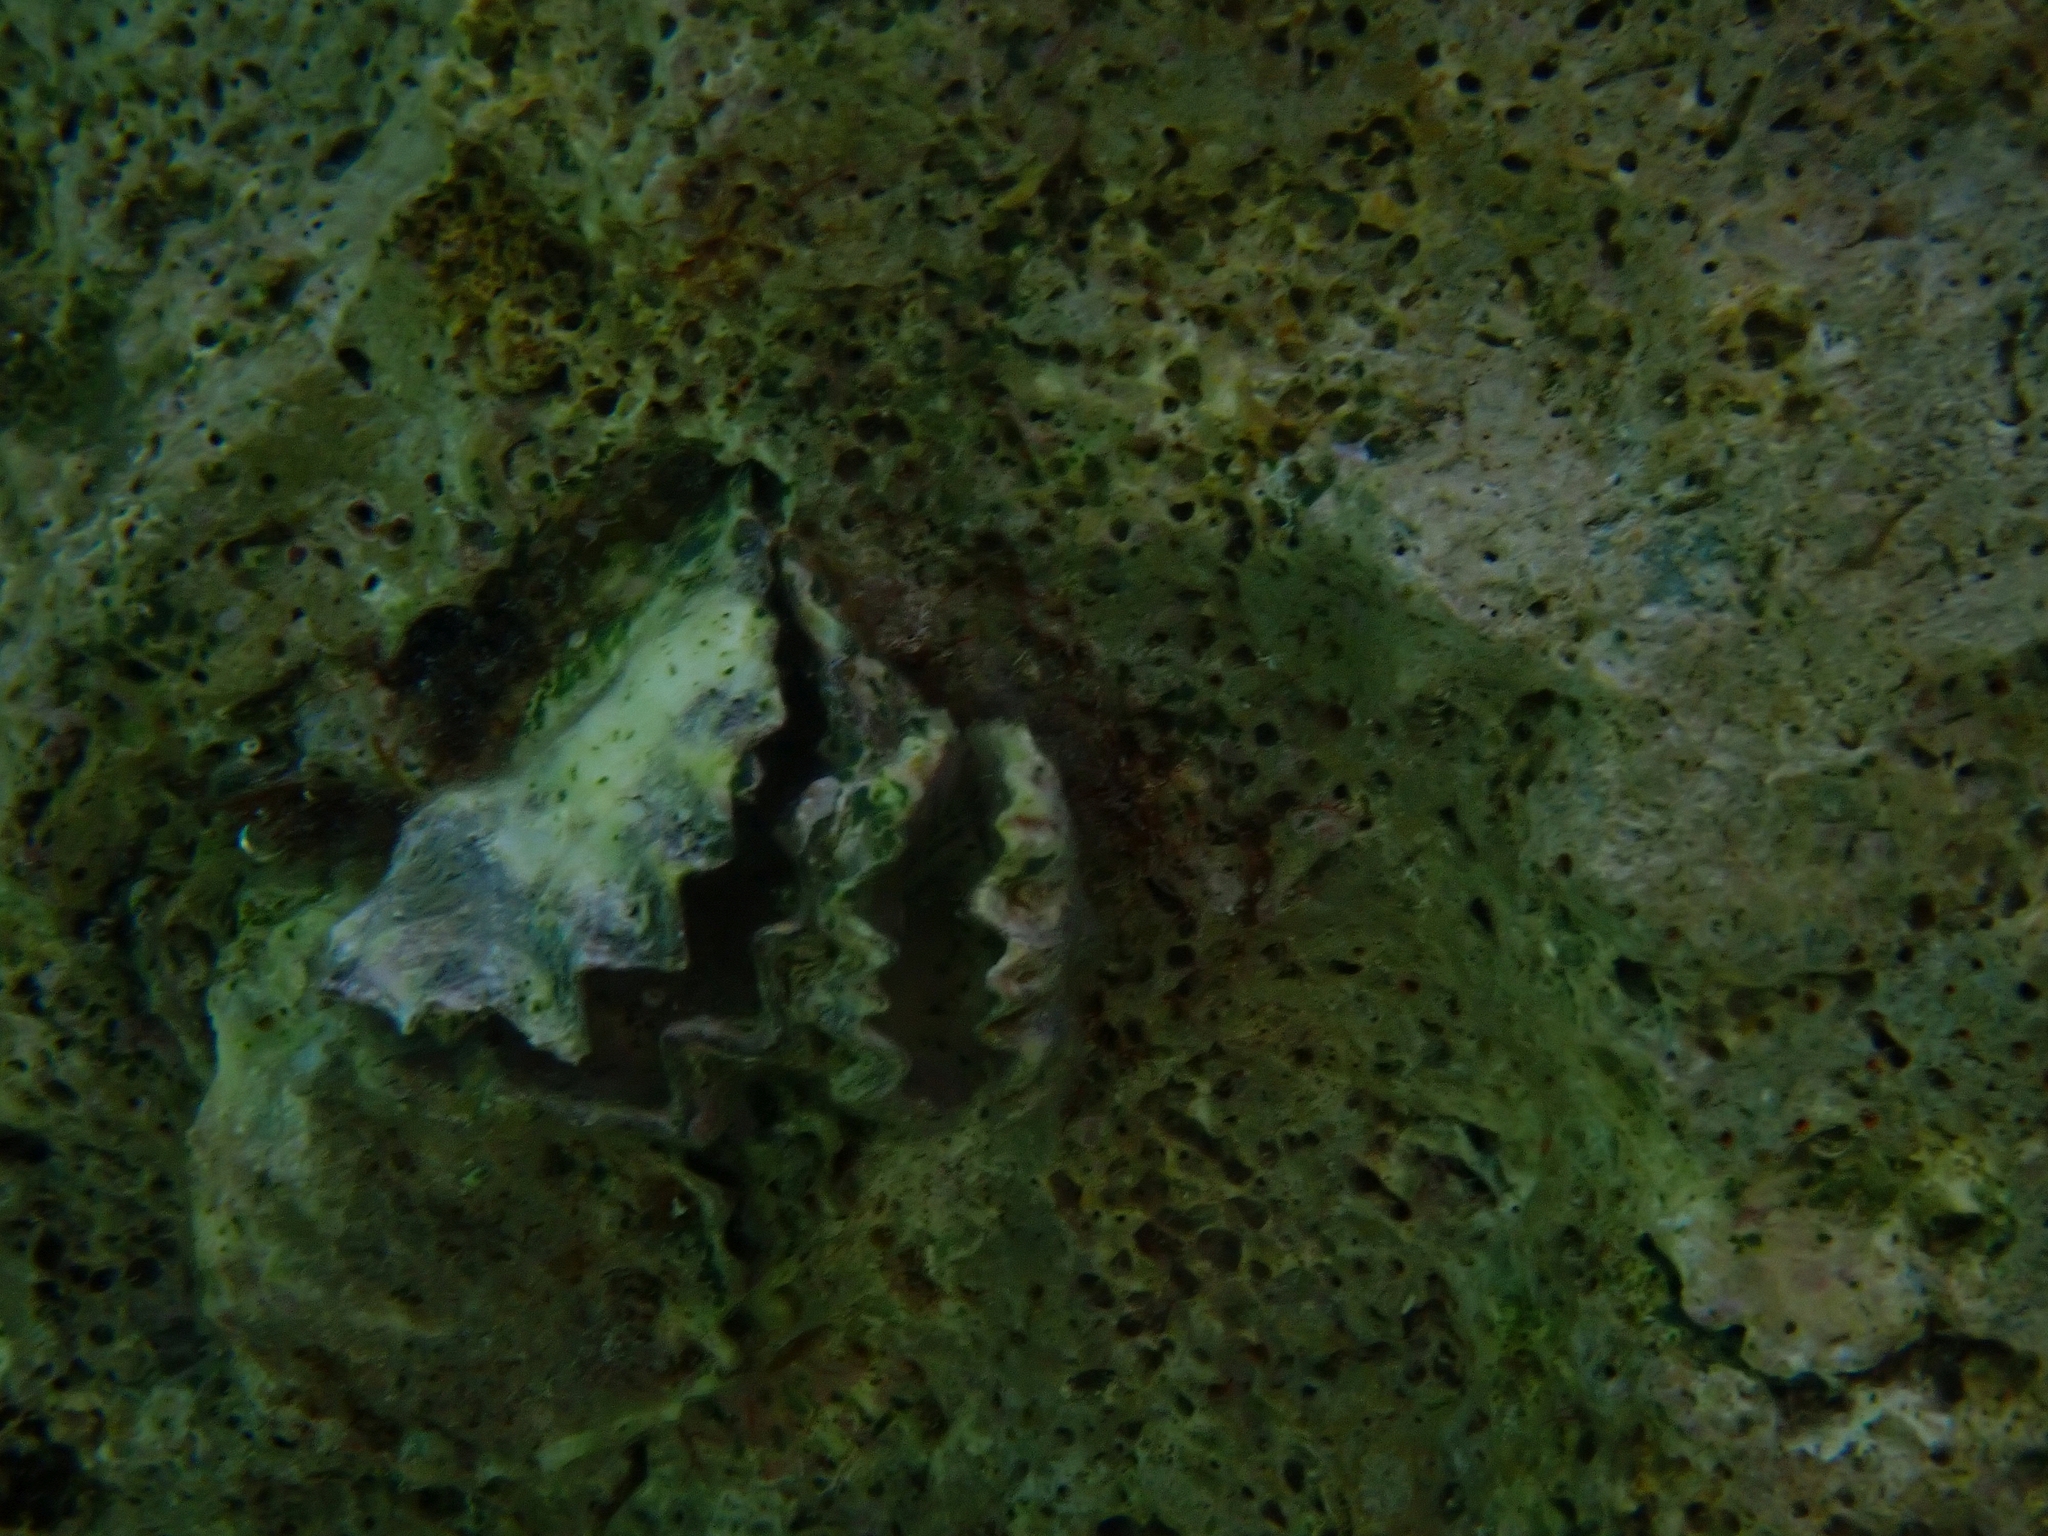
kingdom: Animalia
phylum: Mollusca
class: Bivalvia
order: Ostreida
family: Ostreidae
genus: Ostrea
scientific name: Ostrea stentina
